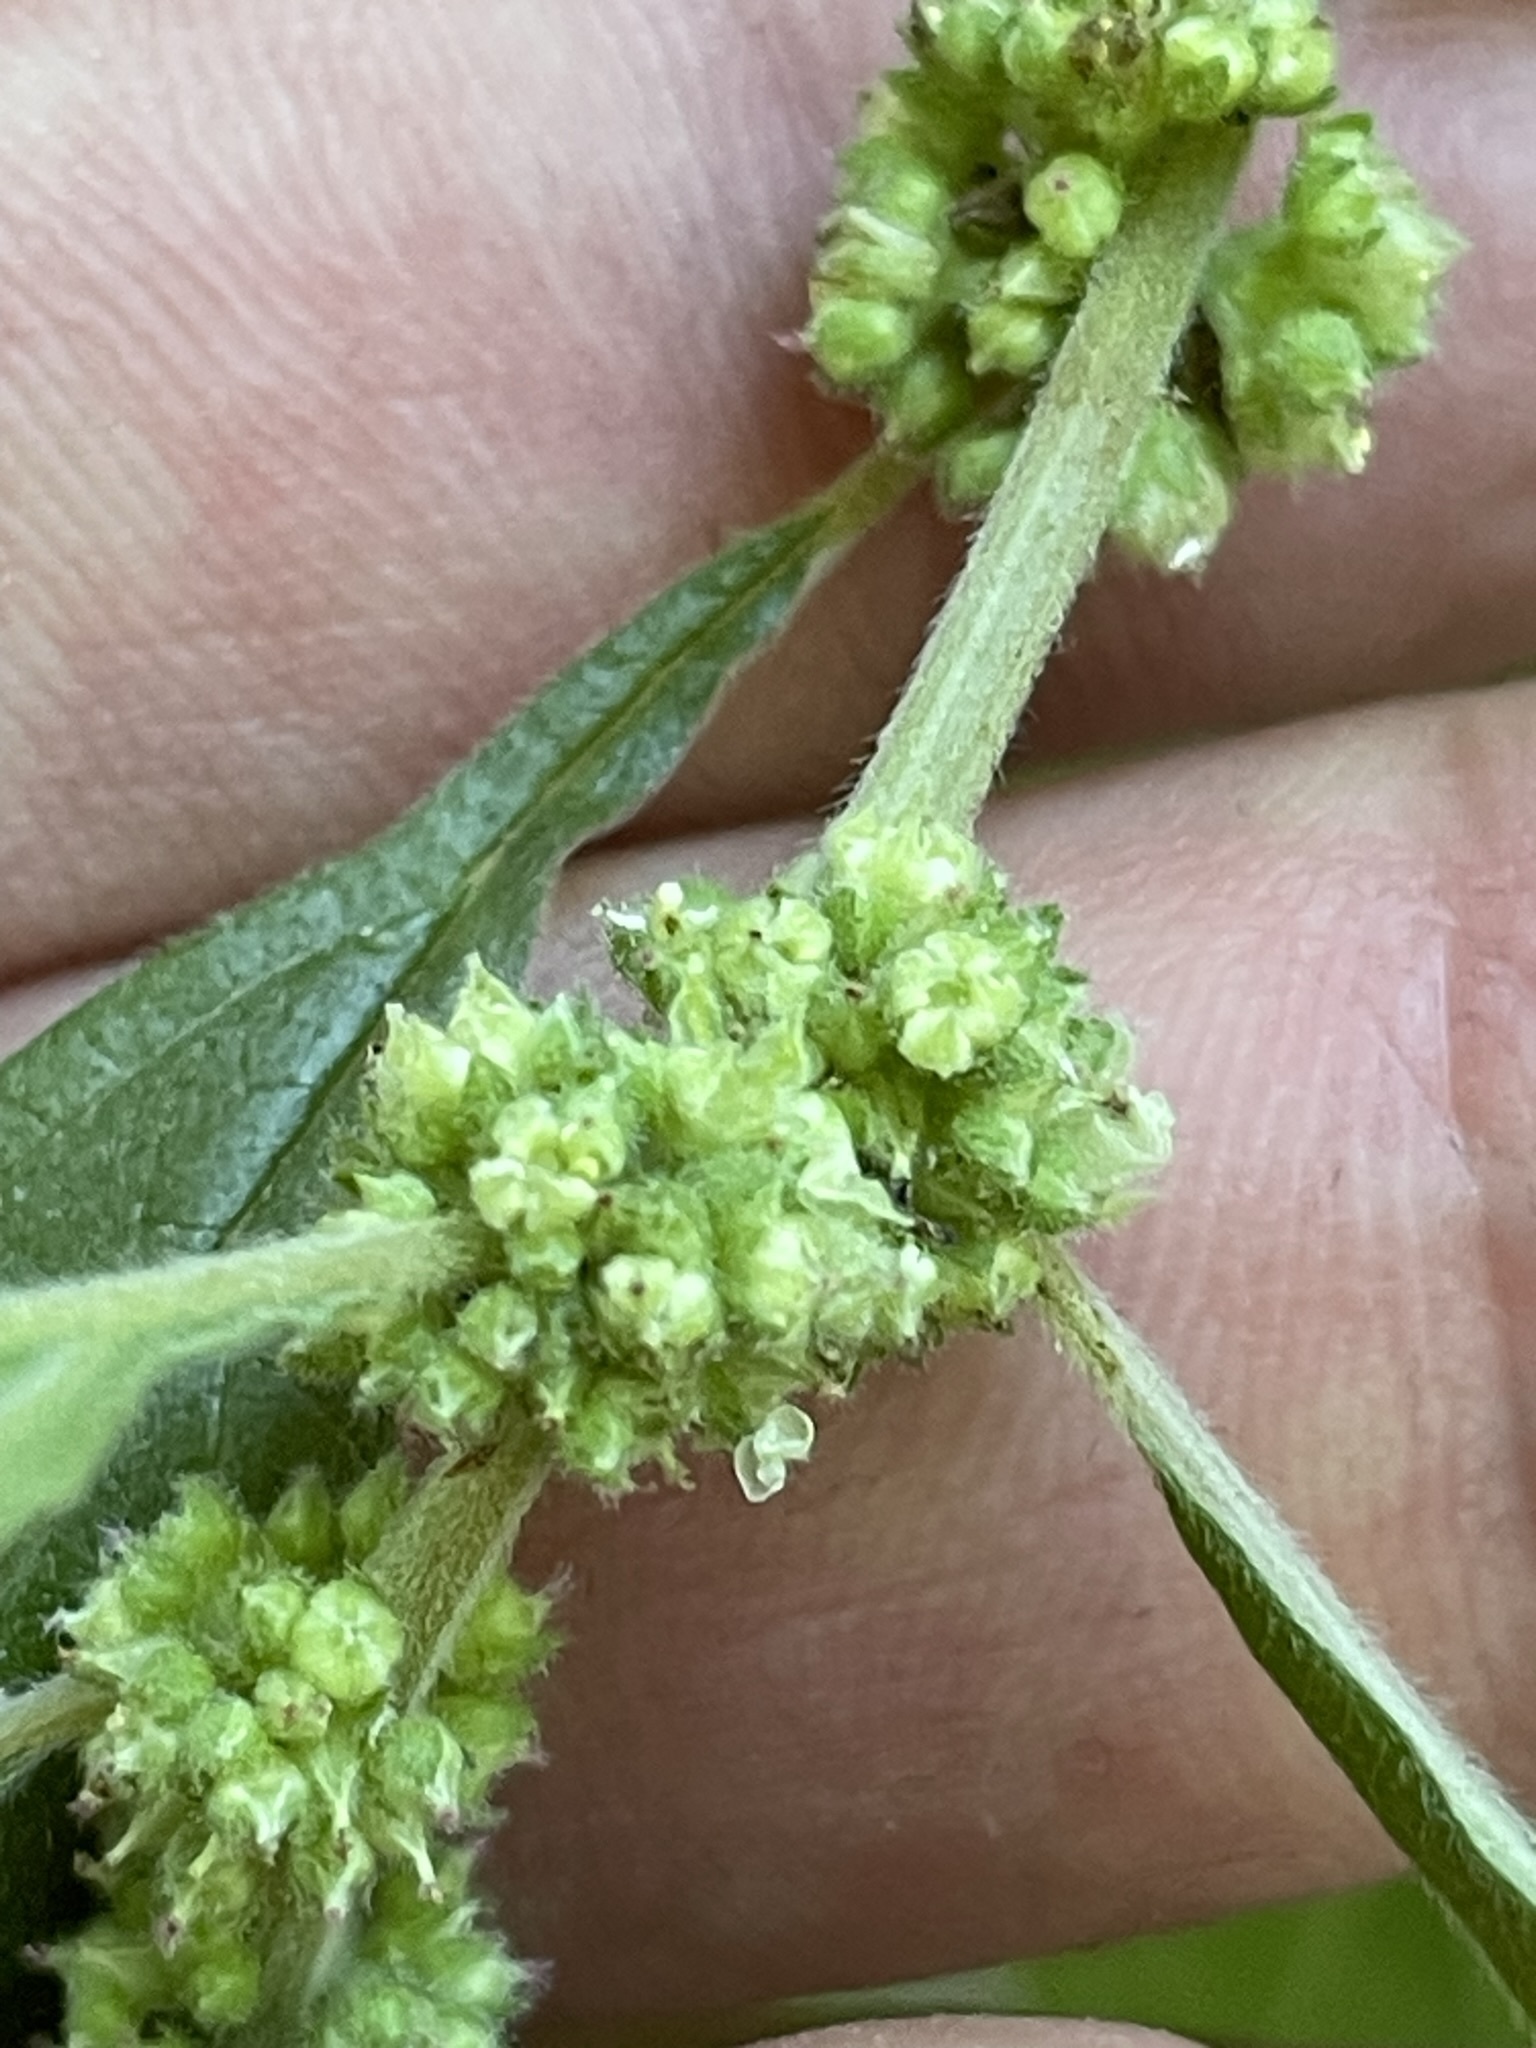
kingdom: Plantae
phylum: Tracheophyta
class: Magnoliopsida
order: Rosales
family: Urticaceae
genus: Parietaria
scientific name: Parietaria officinalis
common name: Eastern pellitory-of-the-wall
